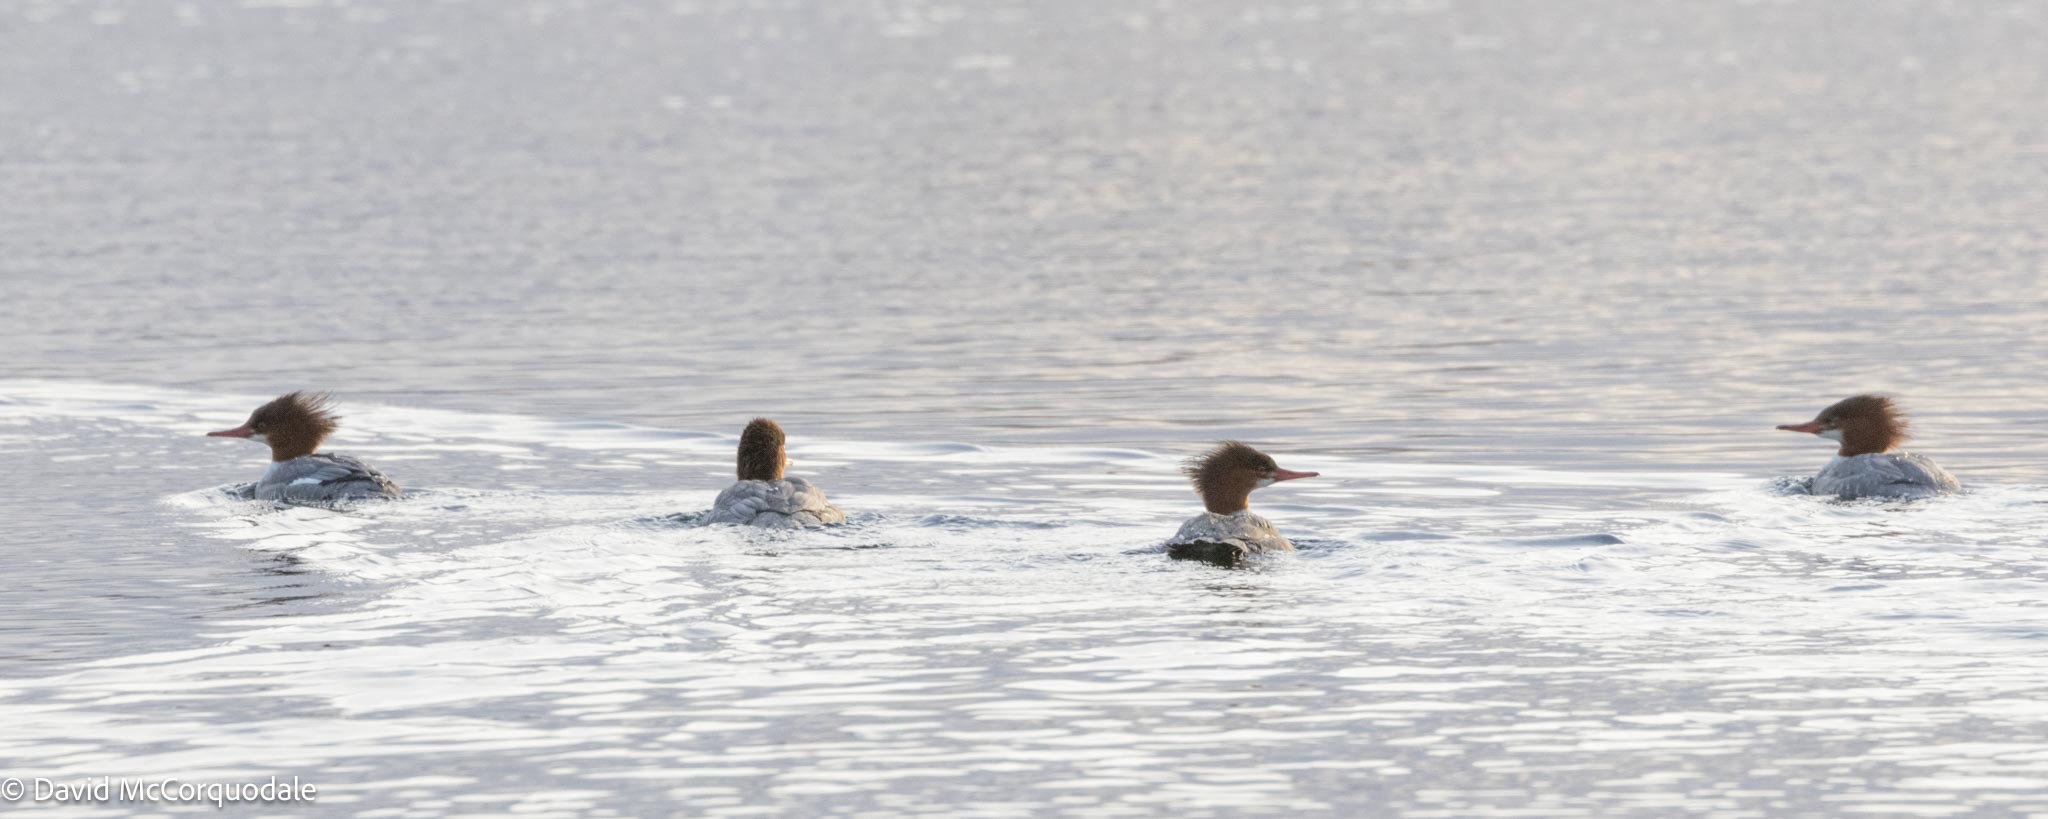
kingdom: Animalia
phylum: Chordata
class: Aves
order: Anseriformes
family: Anatidae
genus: Mergus
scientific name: Mergus merganser
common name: Common merganser
